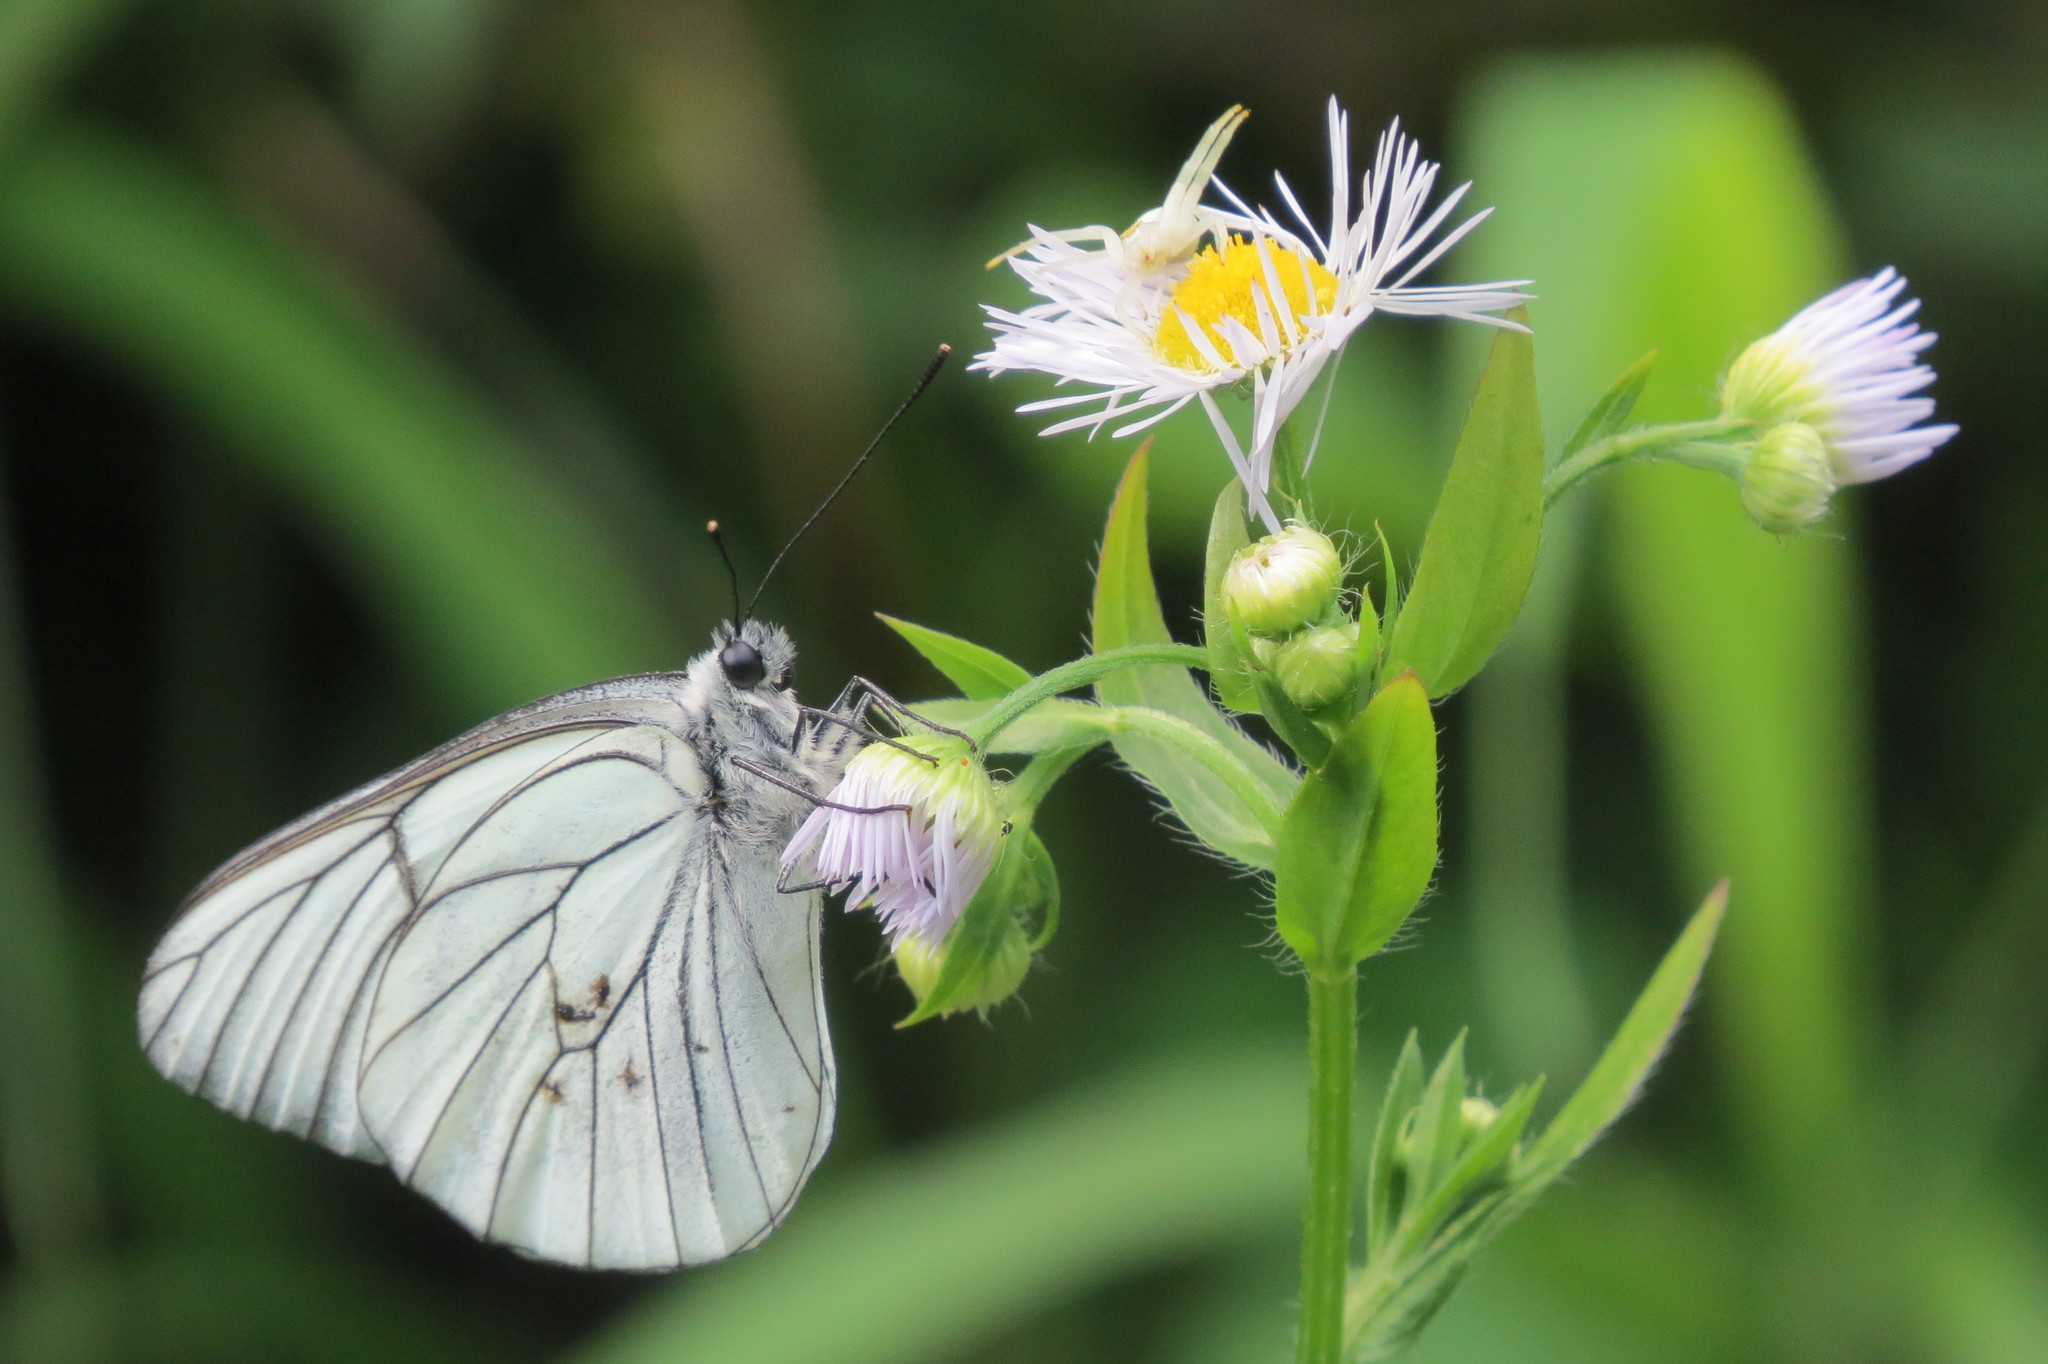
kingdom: Animalia
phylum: Arthropoda
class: Insecta
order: Lepidoptera
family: Pieridae
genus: Aporia
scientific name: Aporia crataegi
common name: Black-veined white
